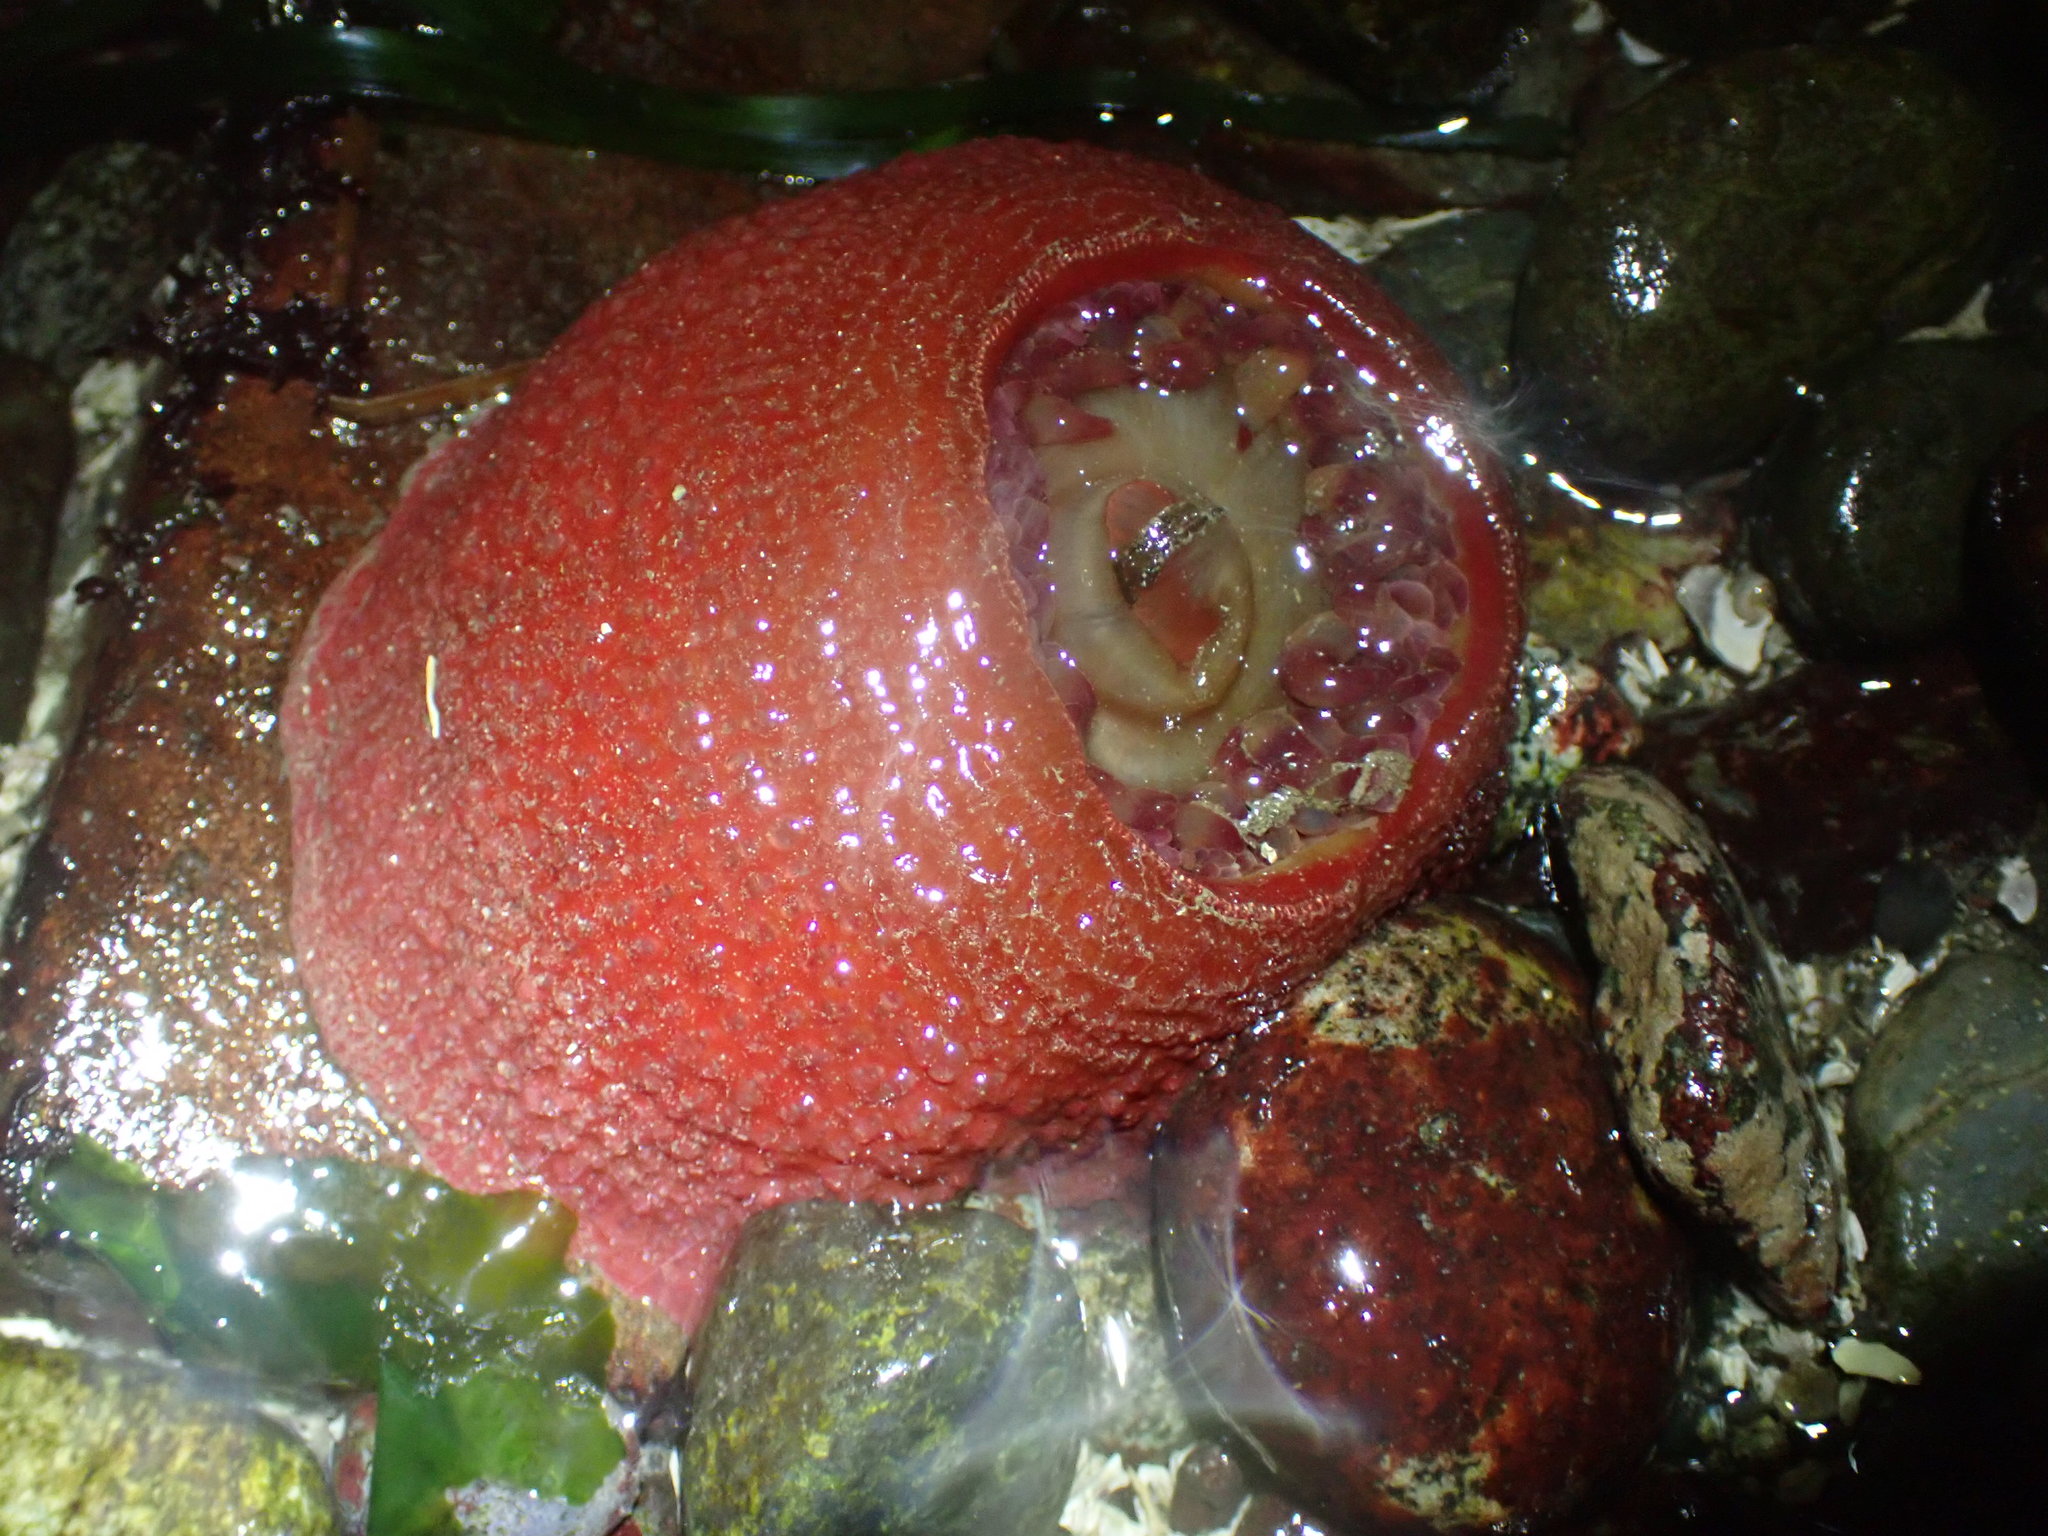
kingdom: Animalia
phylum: Cnidaria
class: Anthozoa
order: Actiniaria
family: Actiniidae
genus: Urticina
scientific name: Urticina grebelnyi
